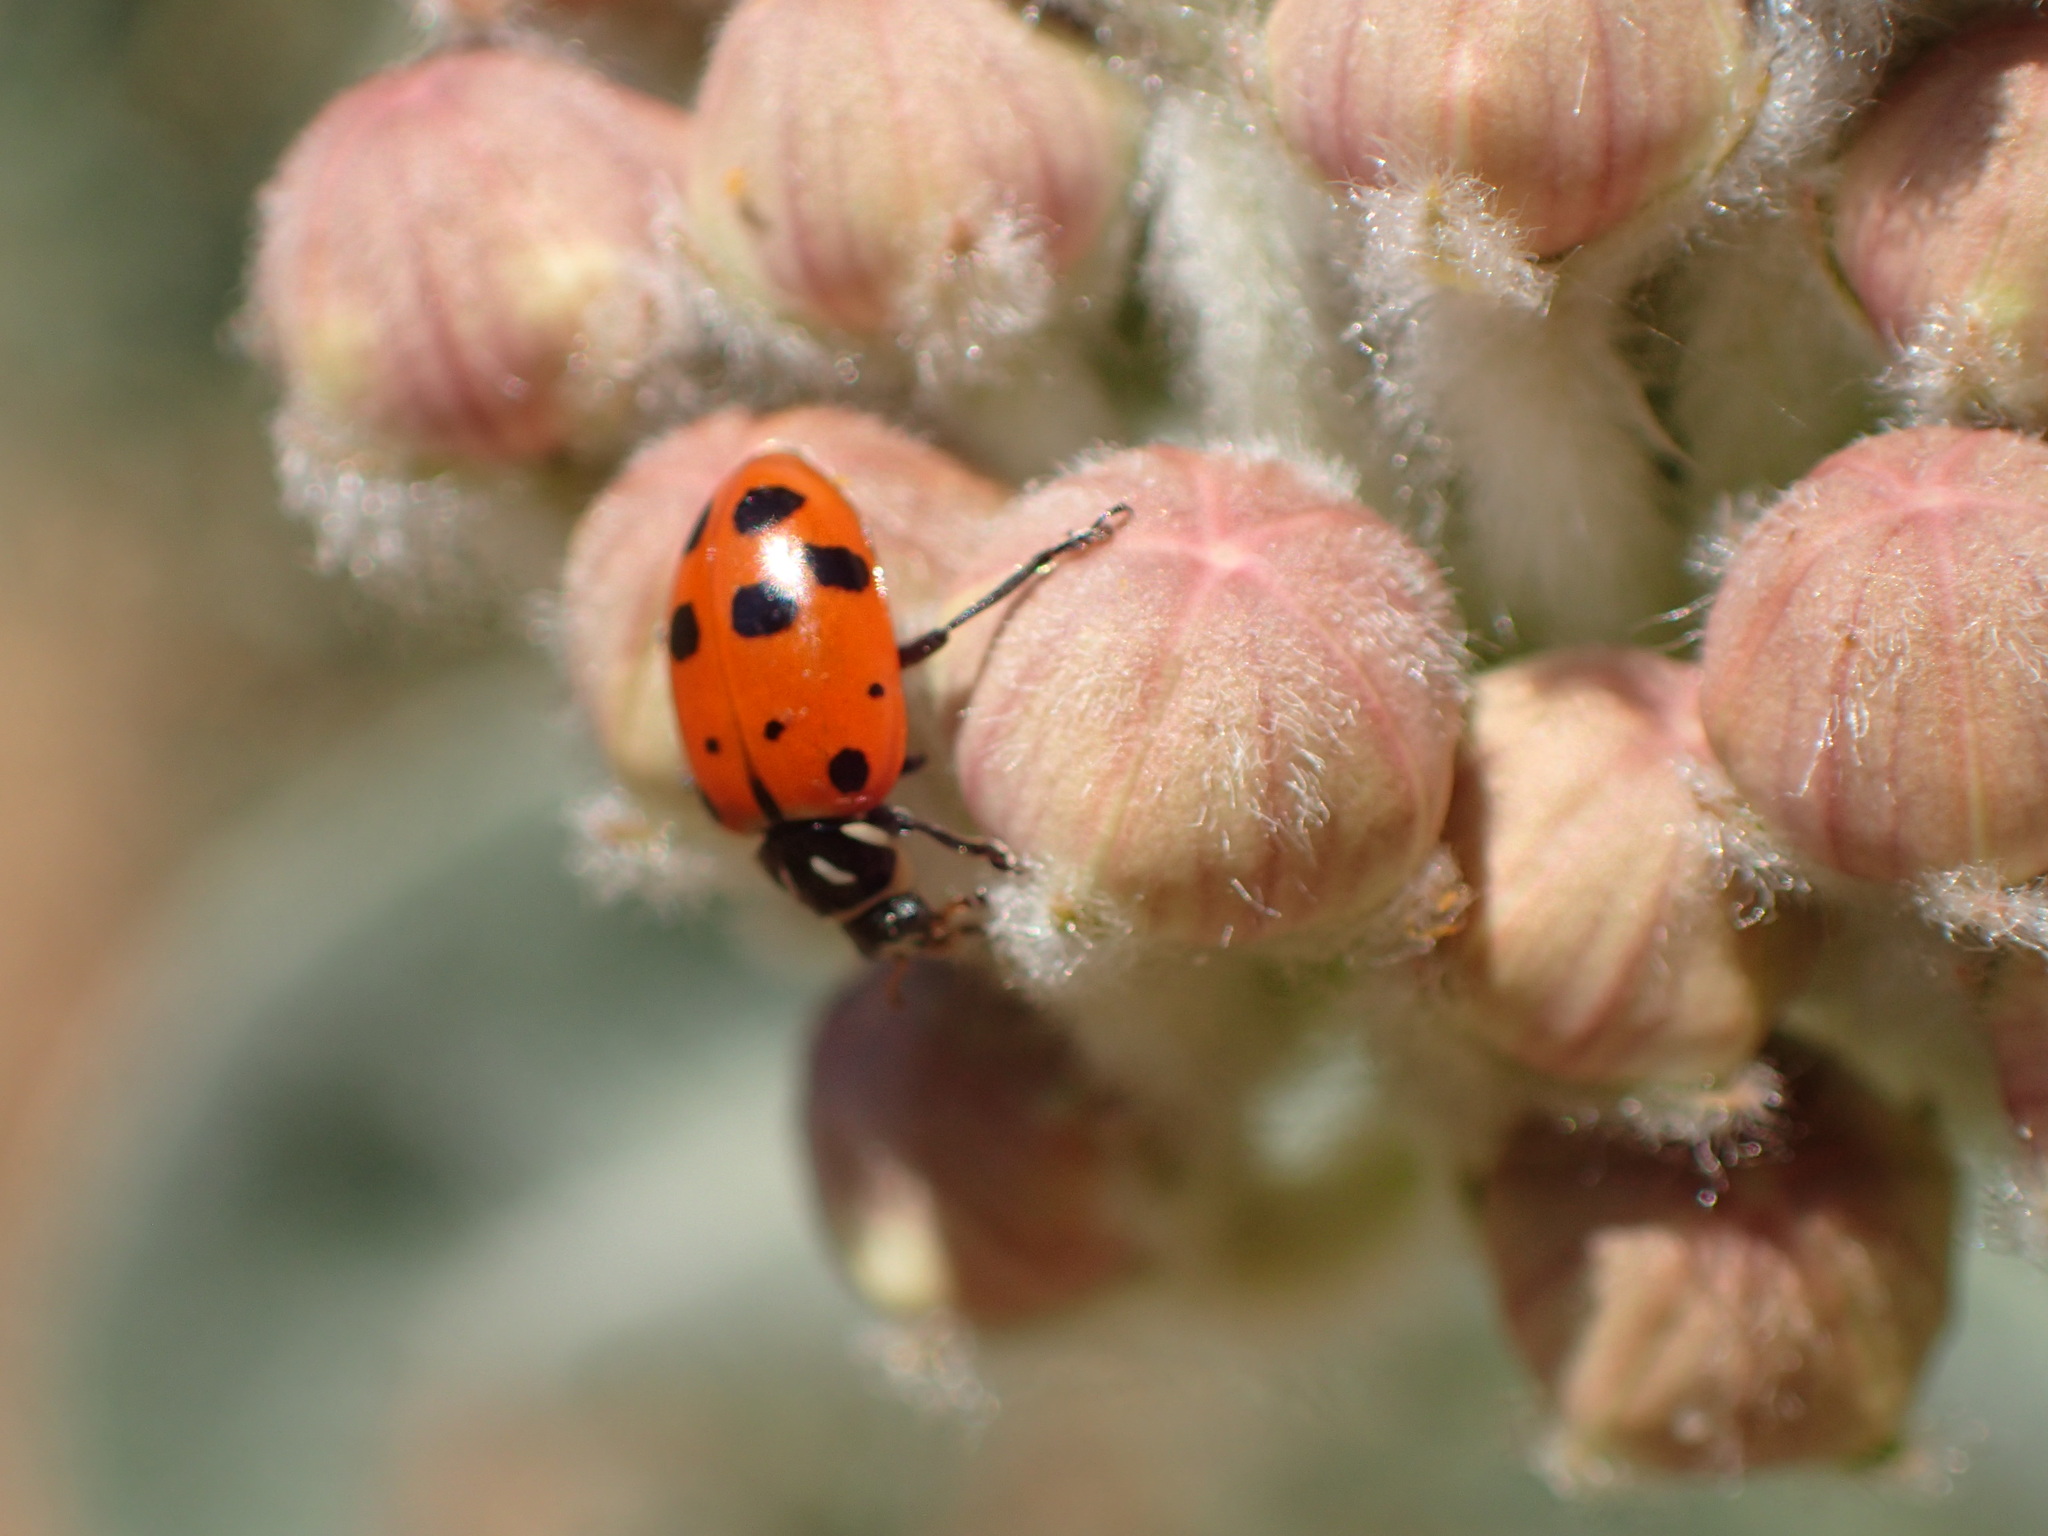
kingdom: Animalia
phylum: Arthropoda
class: Insecta
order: Coleoptera
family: Coccinellidae
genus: Hippodamia
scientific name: Hippodamia convergens
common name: Convergent lady beetle
